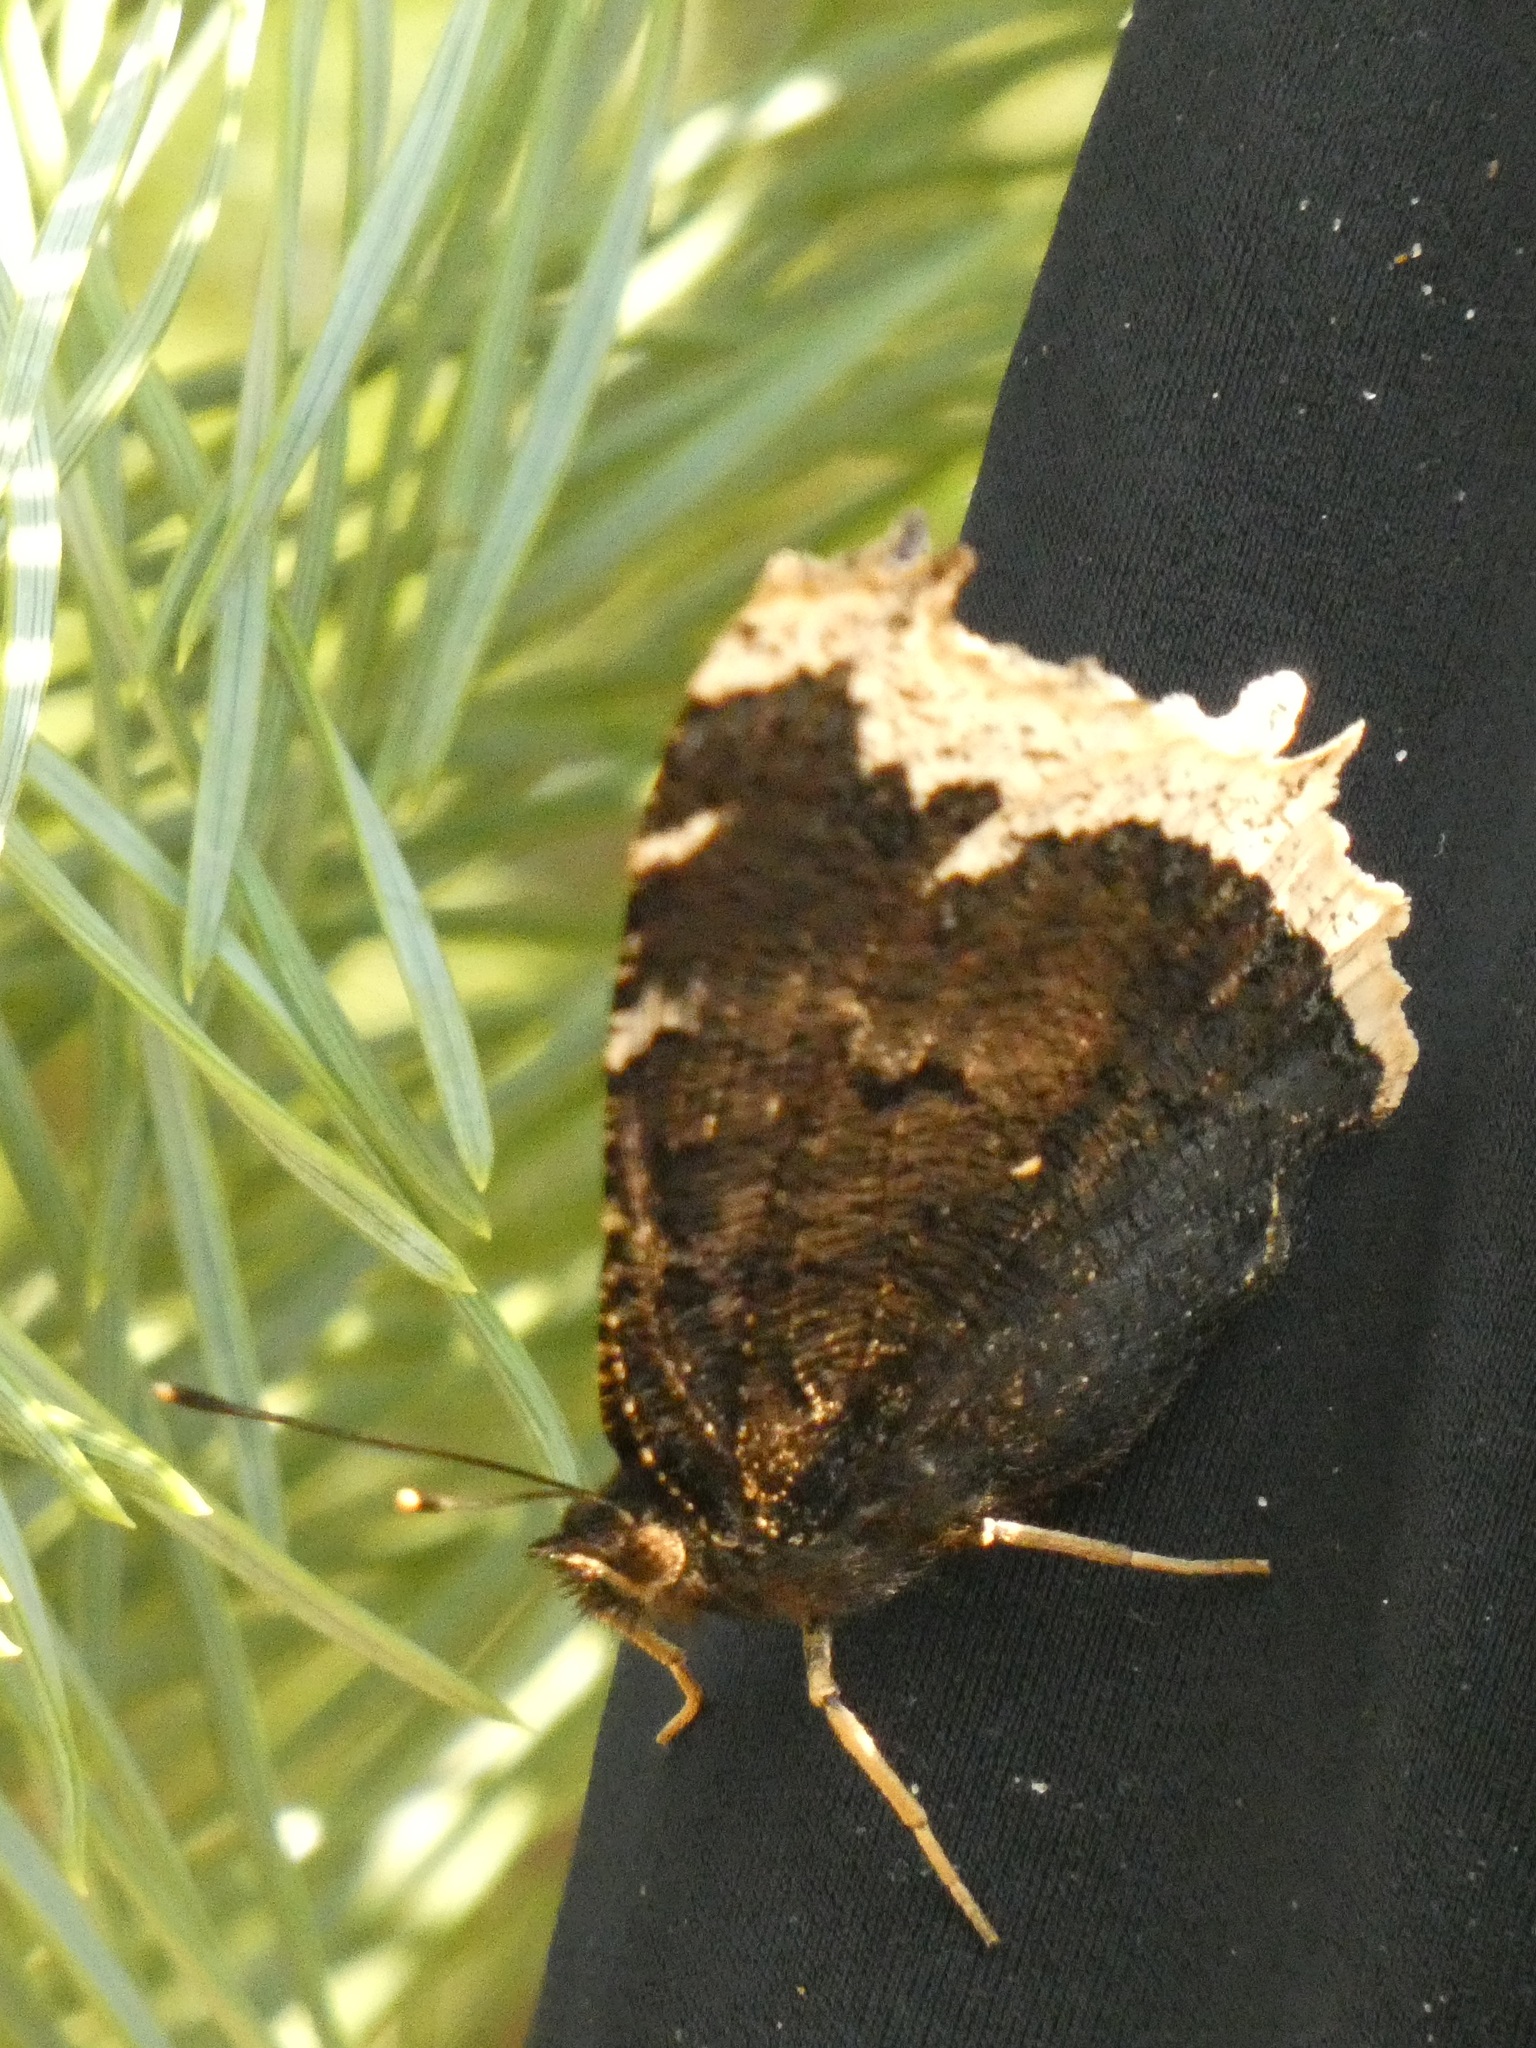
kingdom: Animalia
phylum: Arthropoda
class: Insecta
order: Lepidoptera
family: Nymphalidae
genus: Nymphalis
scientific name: Nymphalis antiopa
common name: Camberwell beauty
